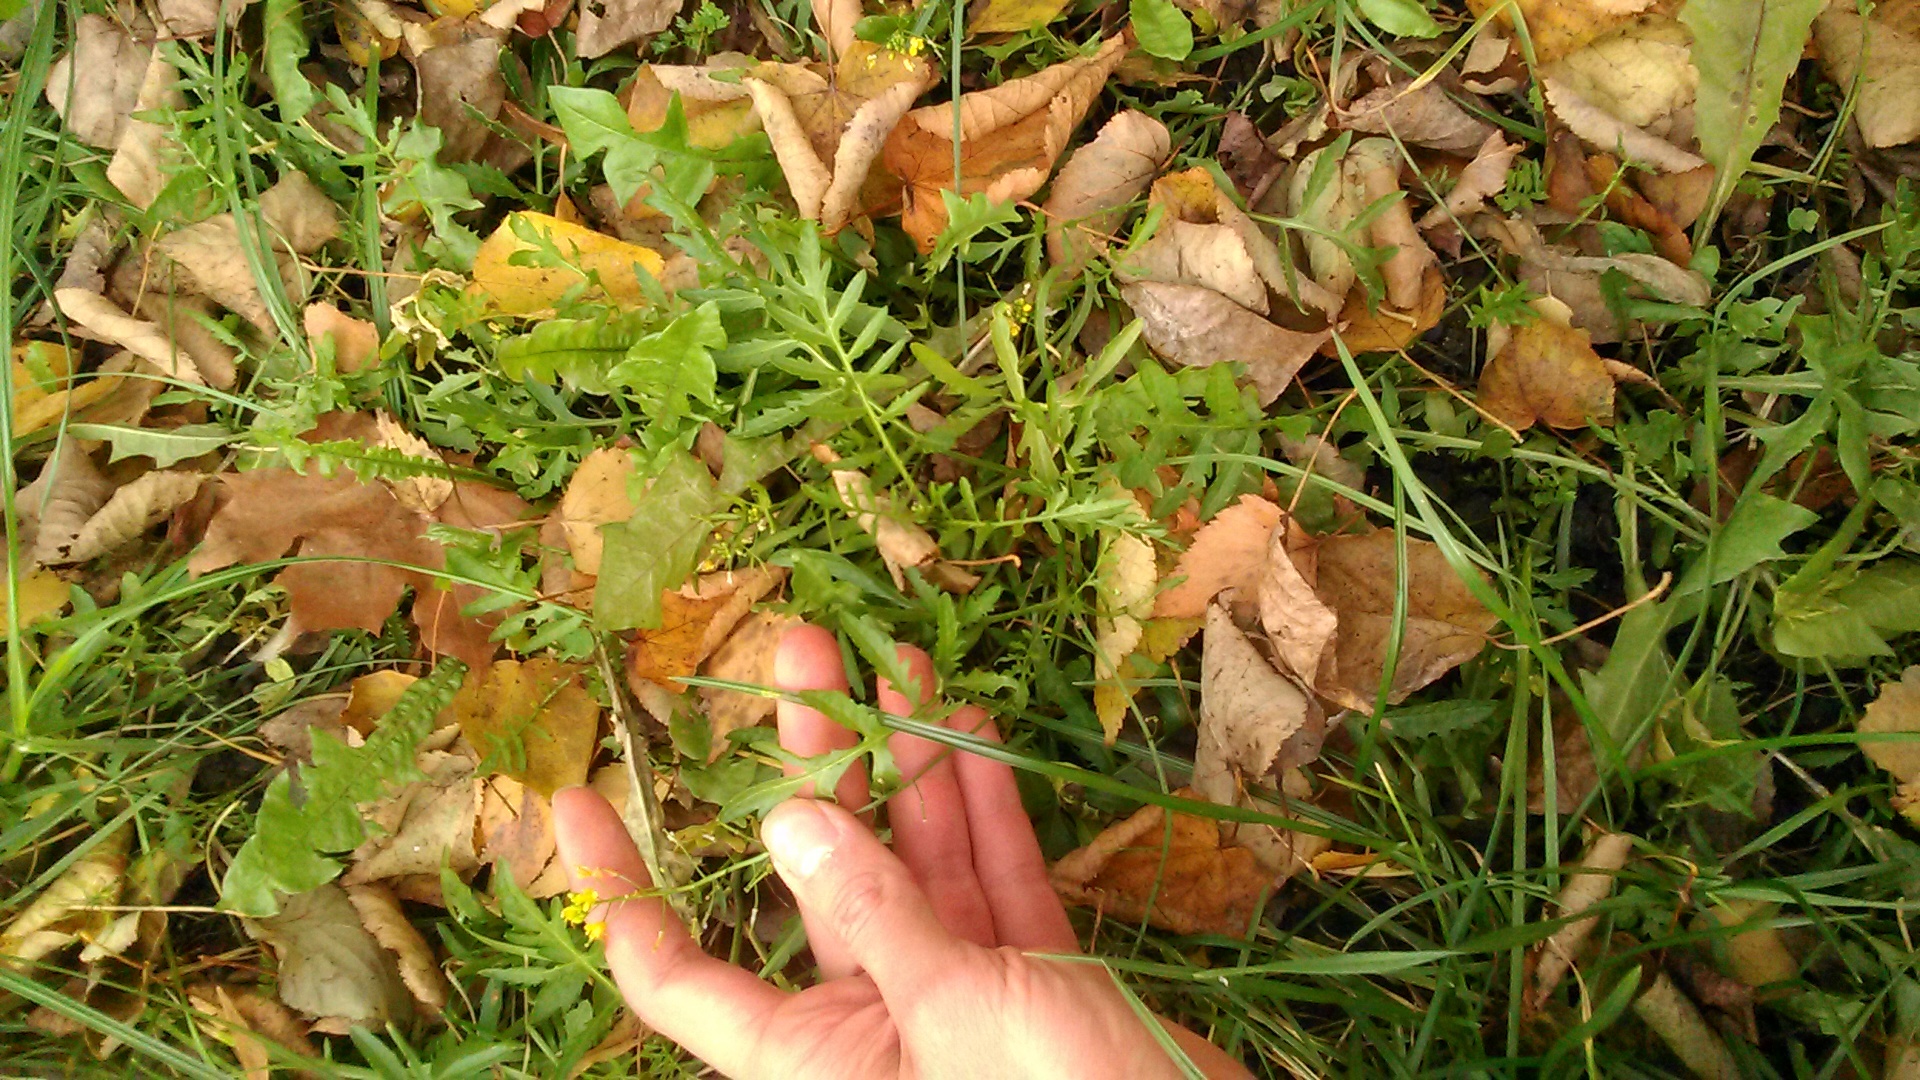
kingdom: Plantae
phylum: Tracheophyta
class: Magnoliopsida
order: Brassicales
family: Brassicaceae
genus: Rorippa
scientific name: Rorippa sylvestris
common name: Creeping yellowcress
